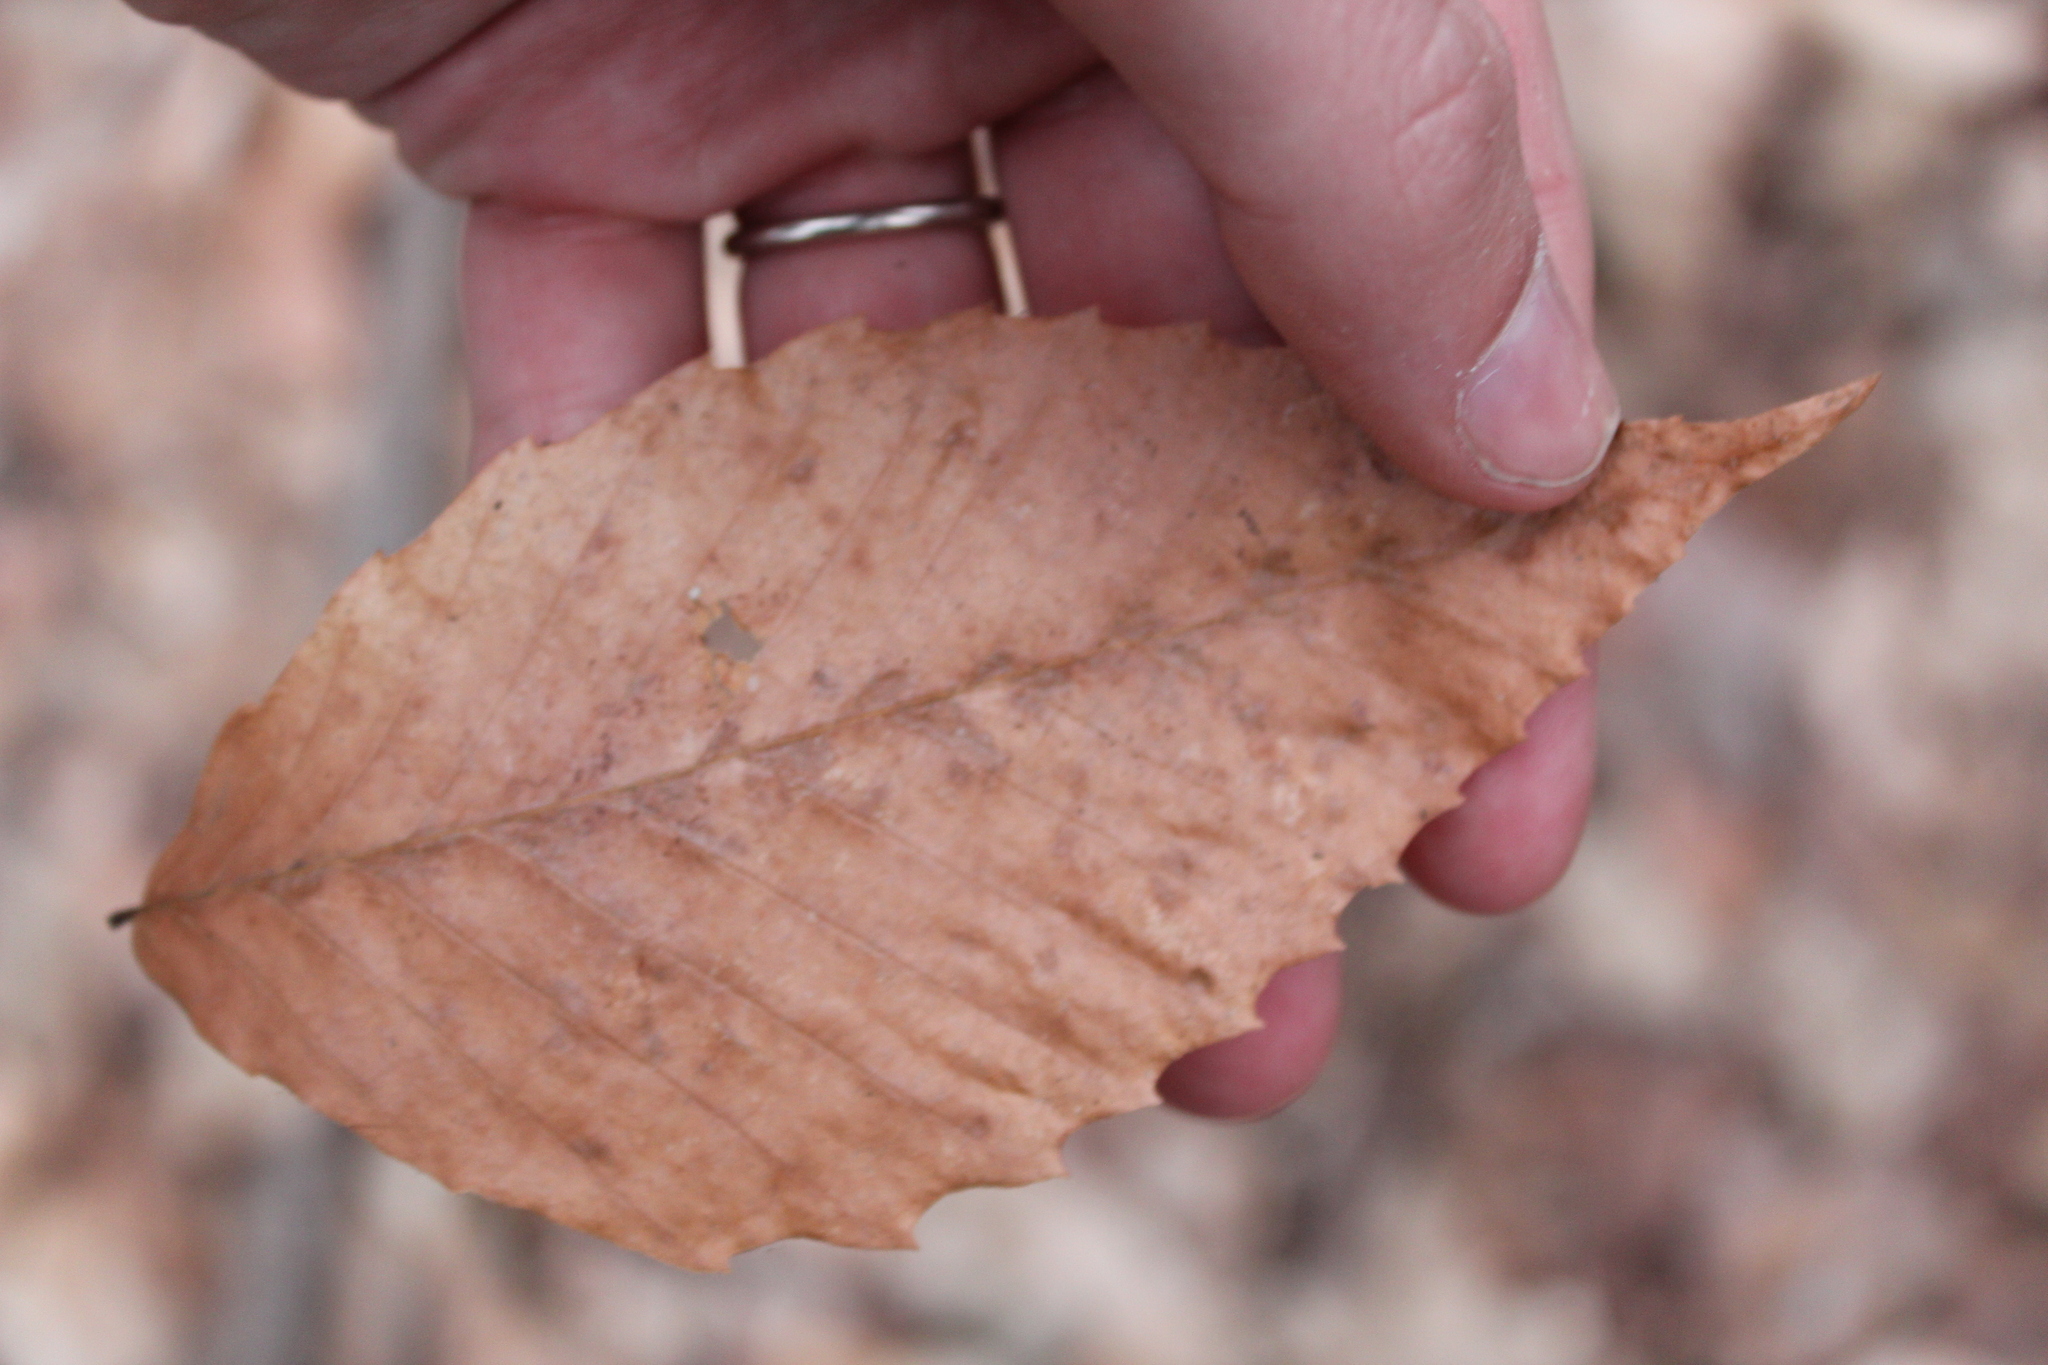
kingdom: Plantae
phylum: Tracheophyta
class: Magnoliopsida
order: Fagales
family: Fagaceae
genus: Fagus
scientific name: Fagus grandifolia
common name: American beech
